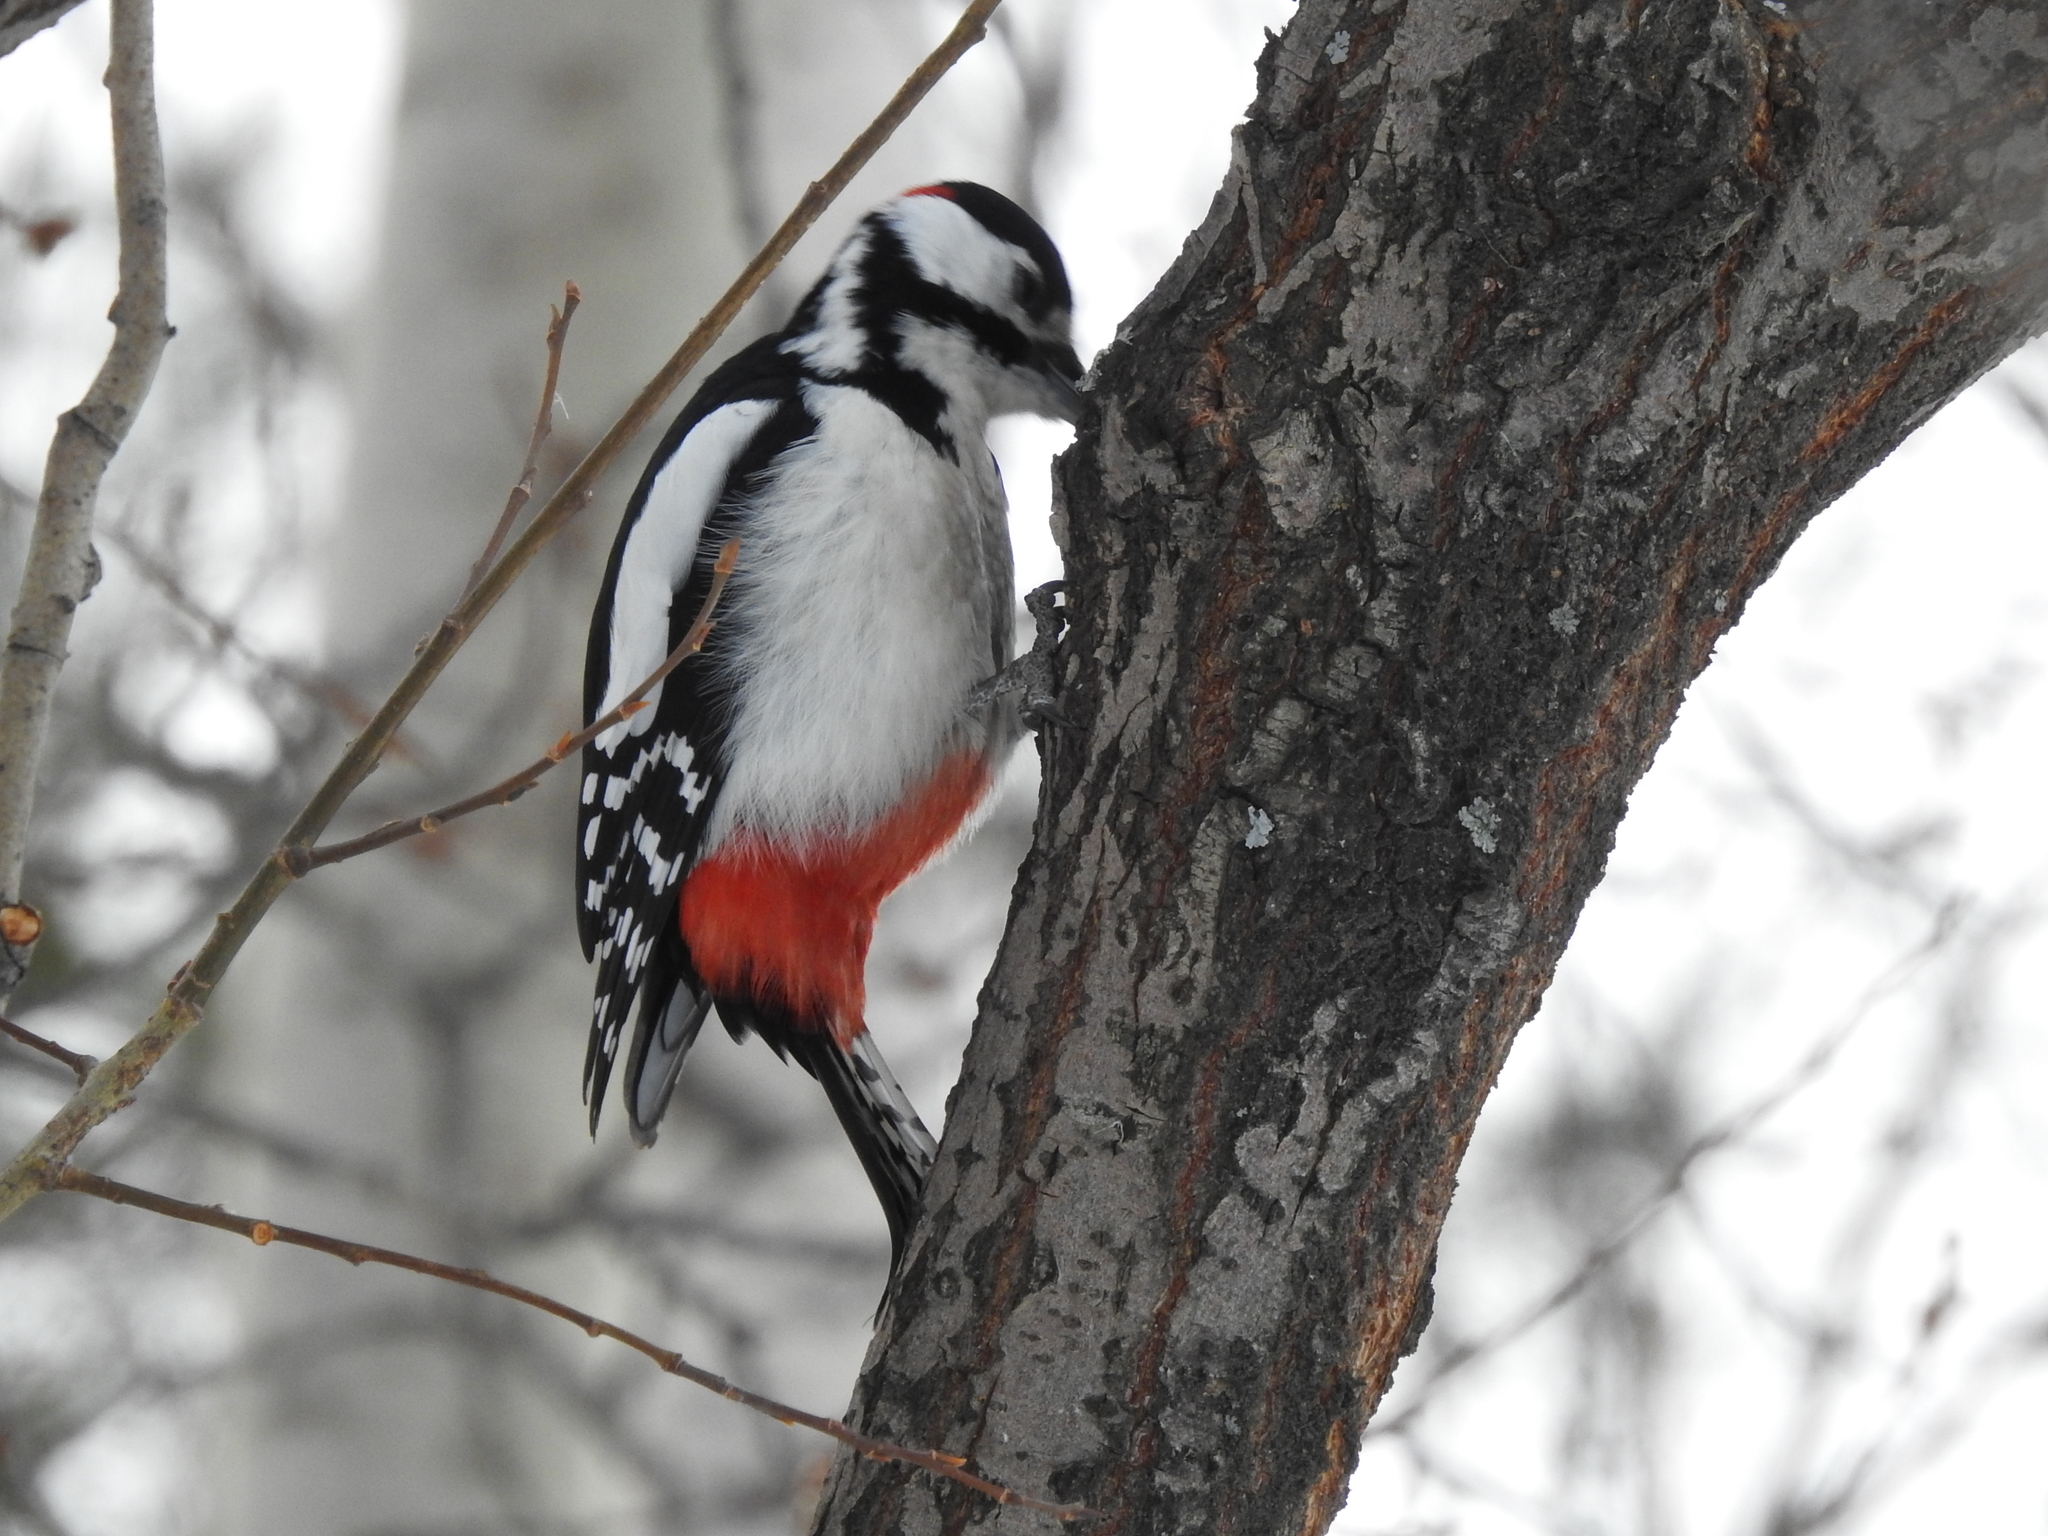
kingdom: Animalia
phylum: Chordata
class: Aves
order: Piciformes
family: Picidae
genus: Dendrocopos
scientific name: Dendrocopos major
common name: Great spotted woodpecker
